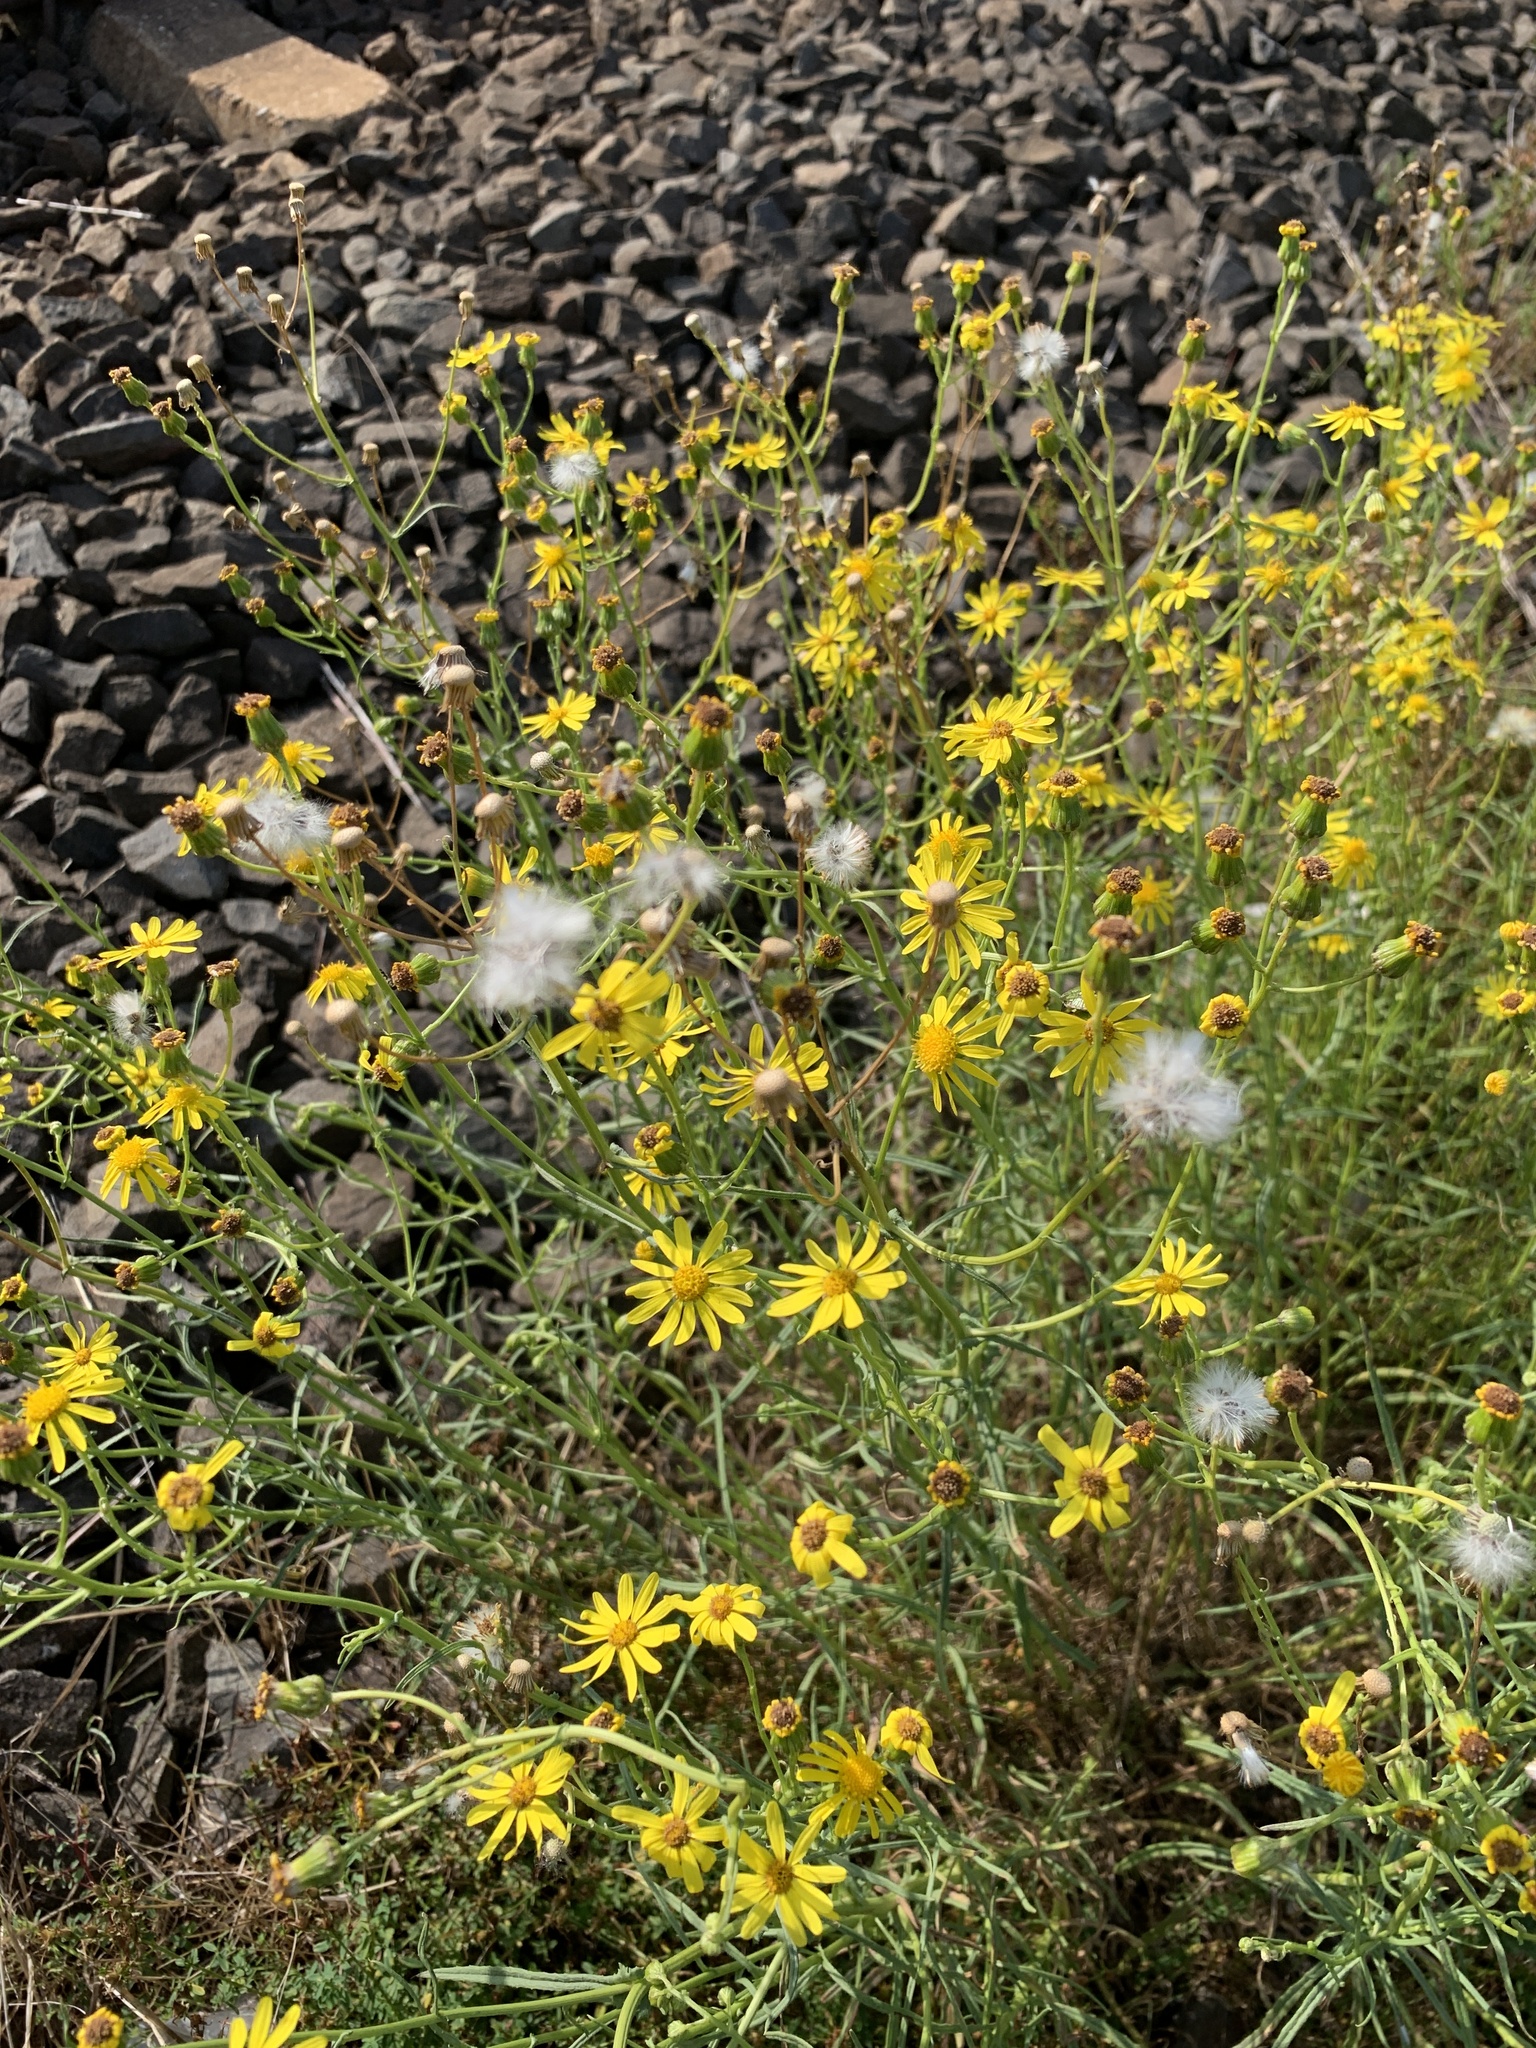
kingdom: Plantae
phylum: Tracheophyta
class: Magnoliopsida
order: Asterales
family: Asteraceae
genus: Senecio
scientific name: Senecio inaequidens
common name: Narrow-leaved ragwort
